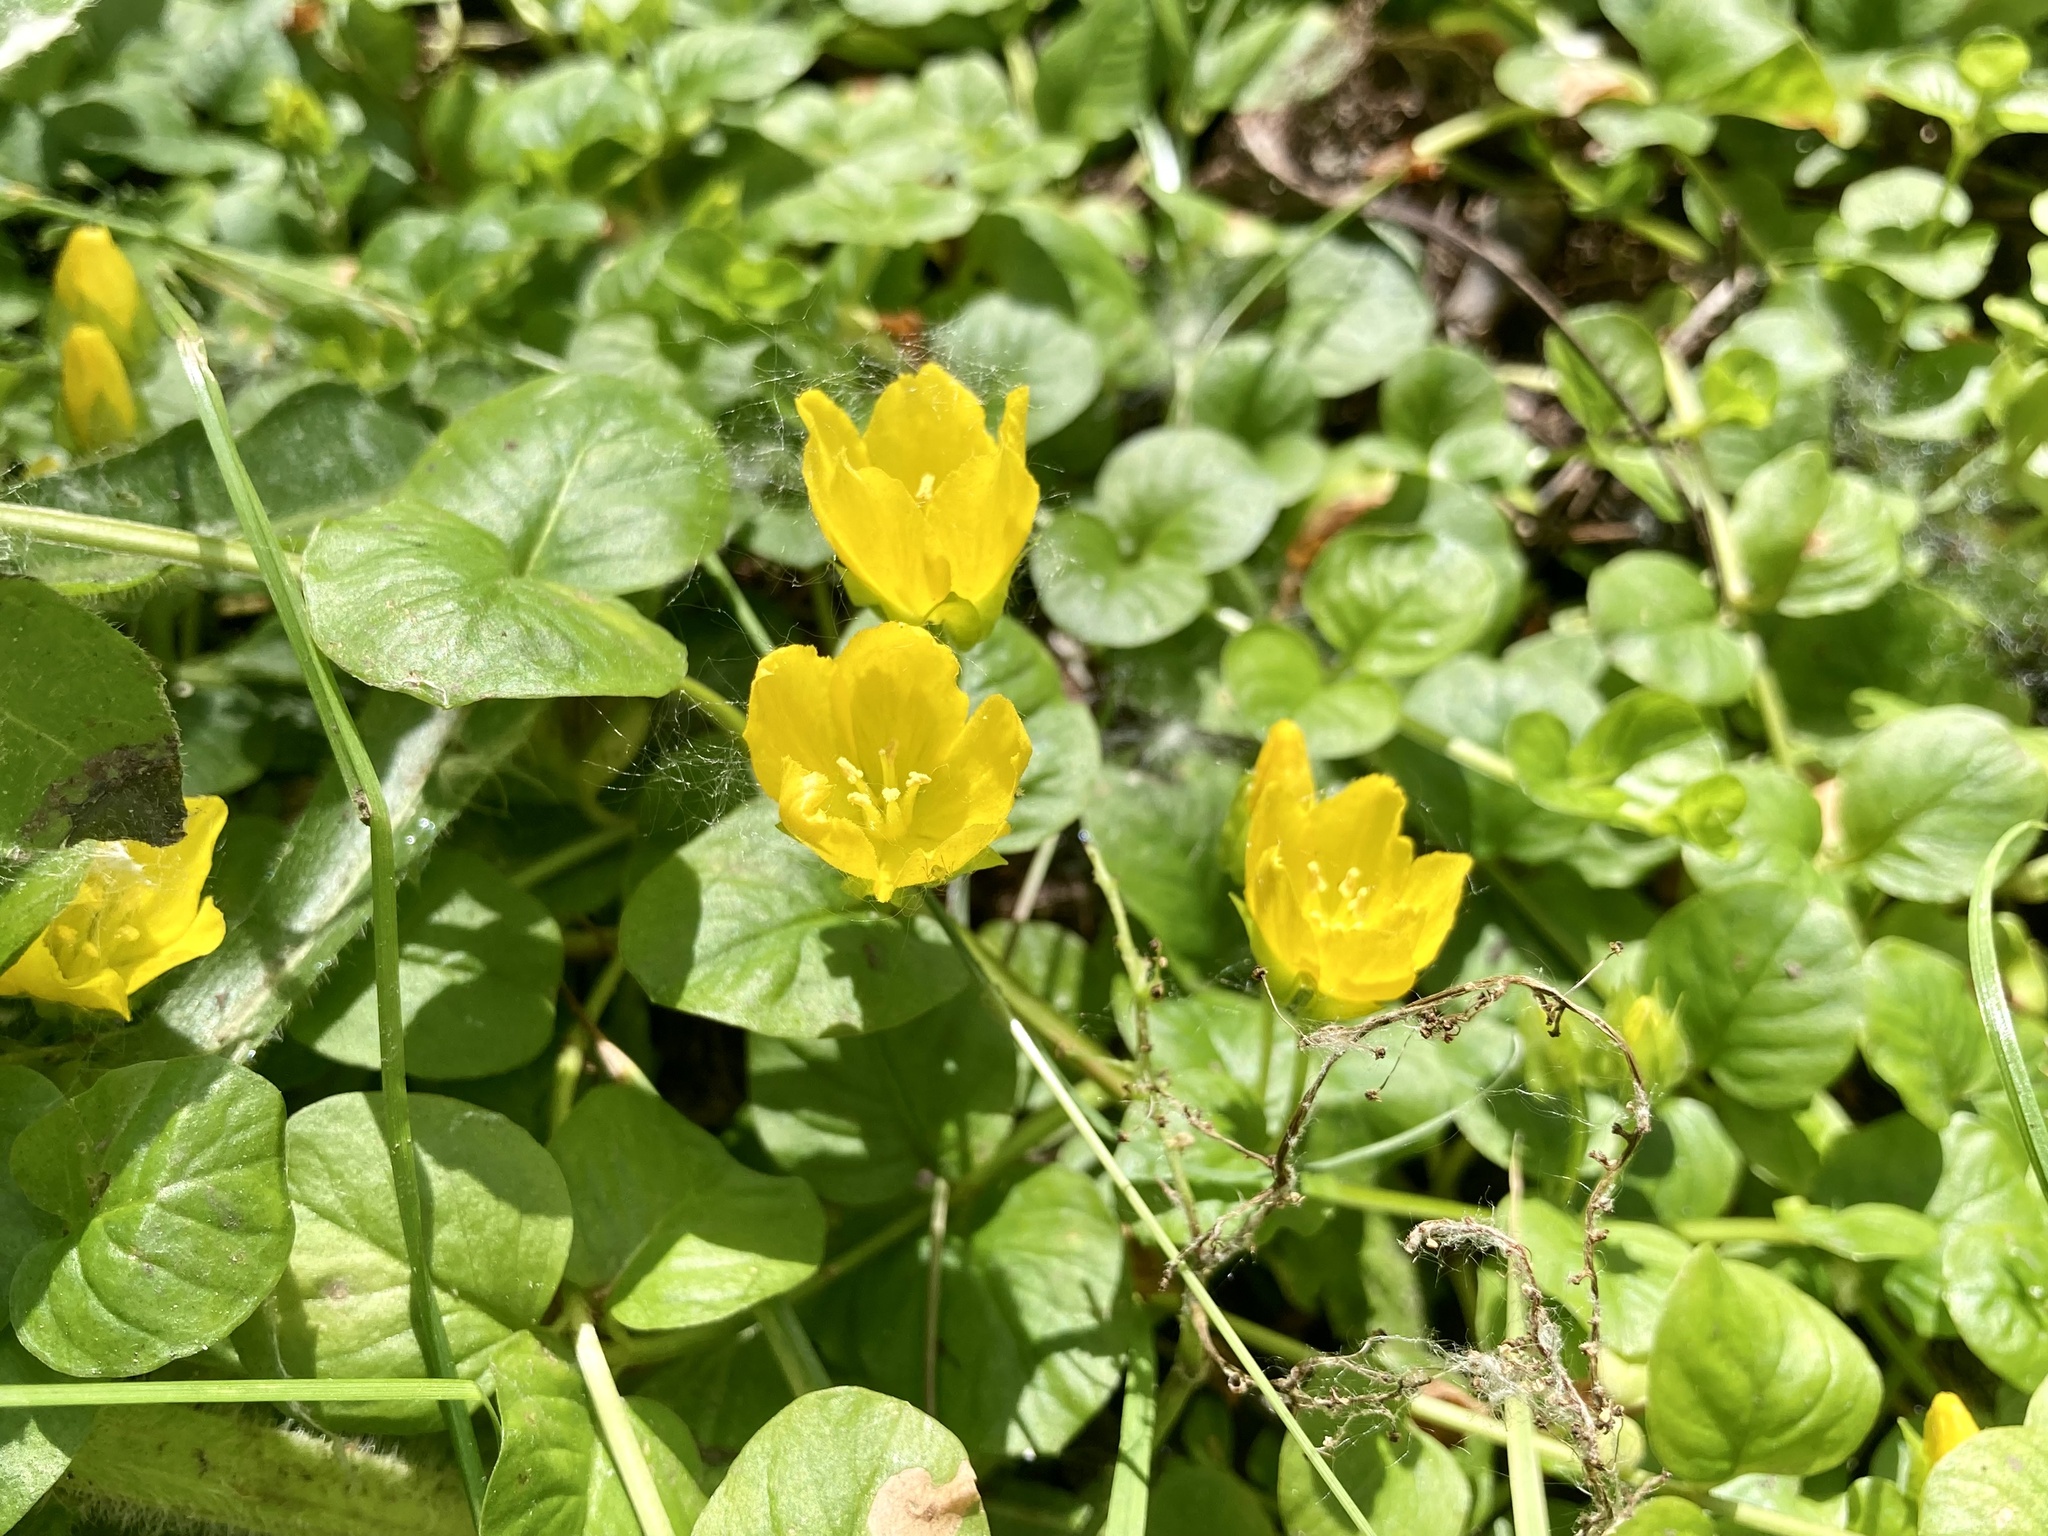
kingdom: Plantae
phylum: Tracheophyta
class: Magnoliopsida
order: Ericales
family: Primulaceae
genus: Lysimachia
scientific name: Lysimachia nummularia
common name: Moneywort
